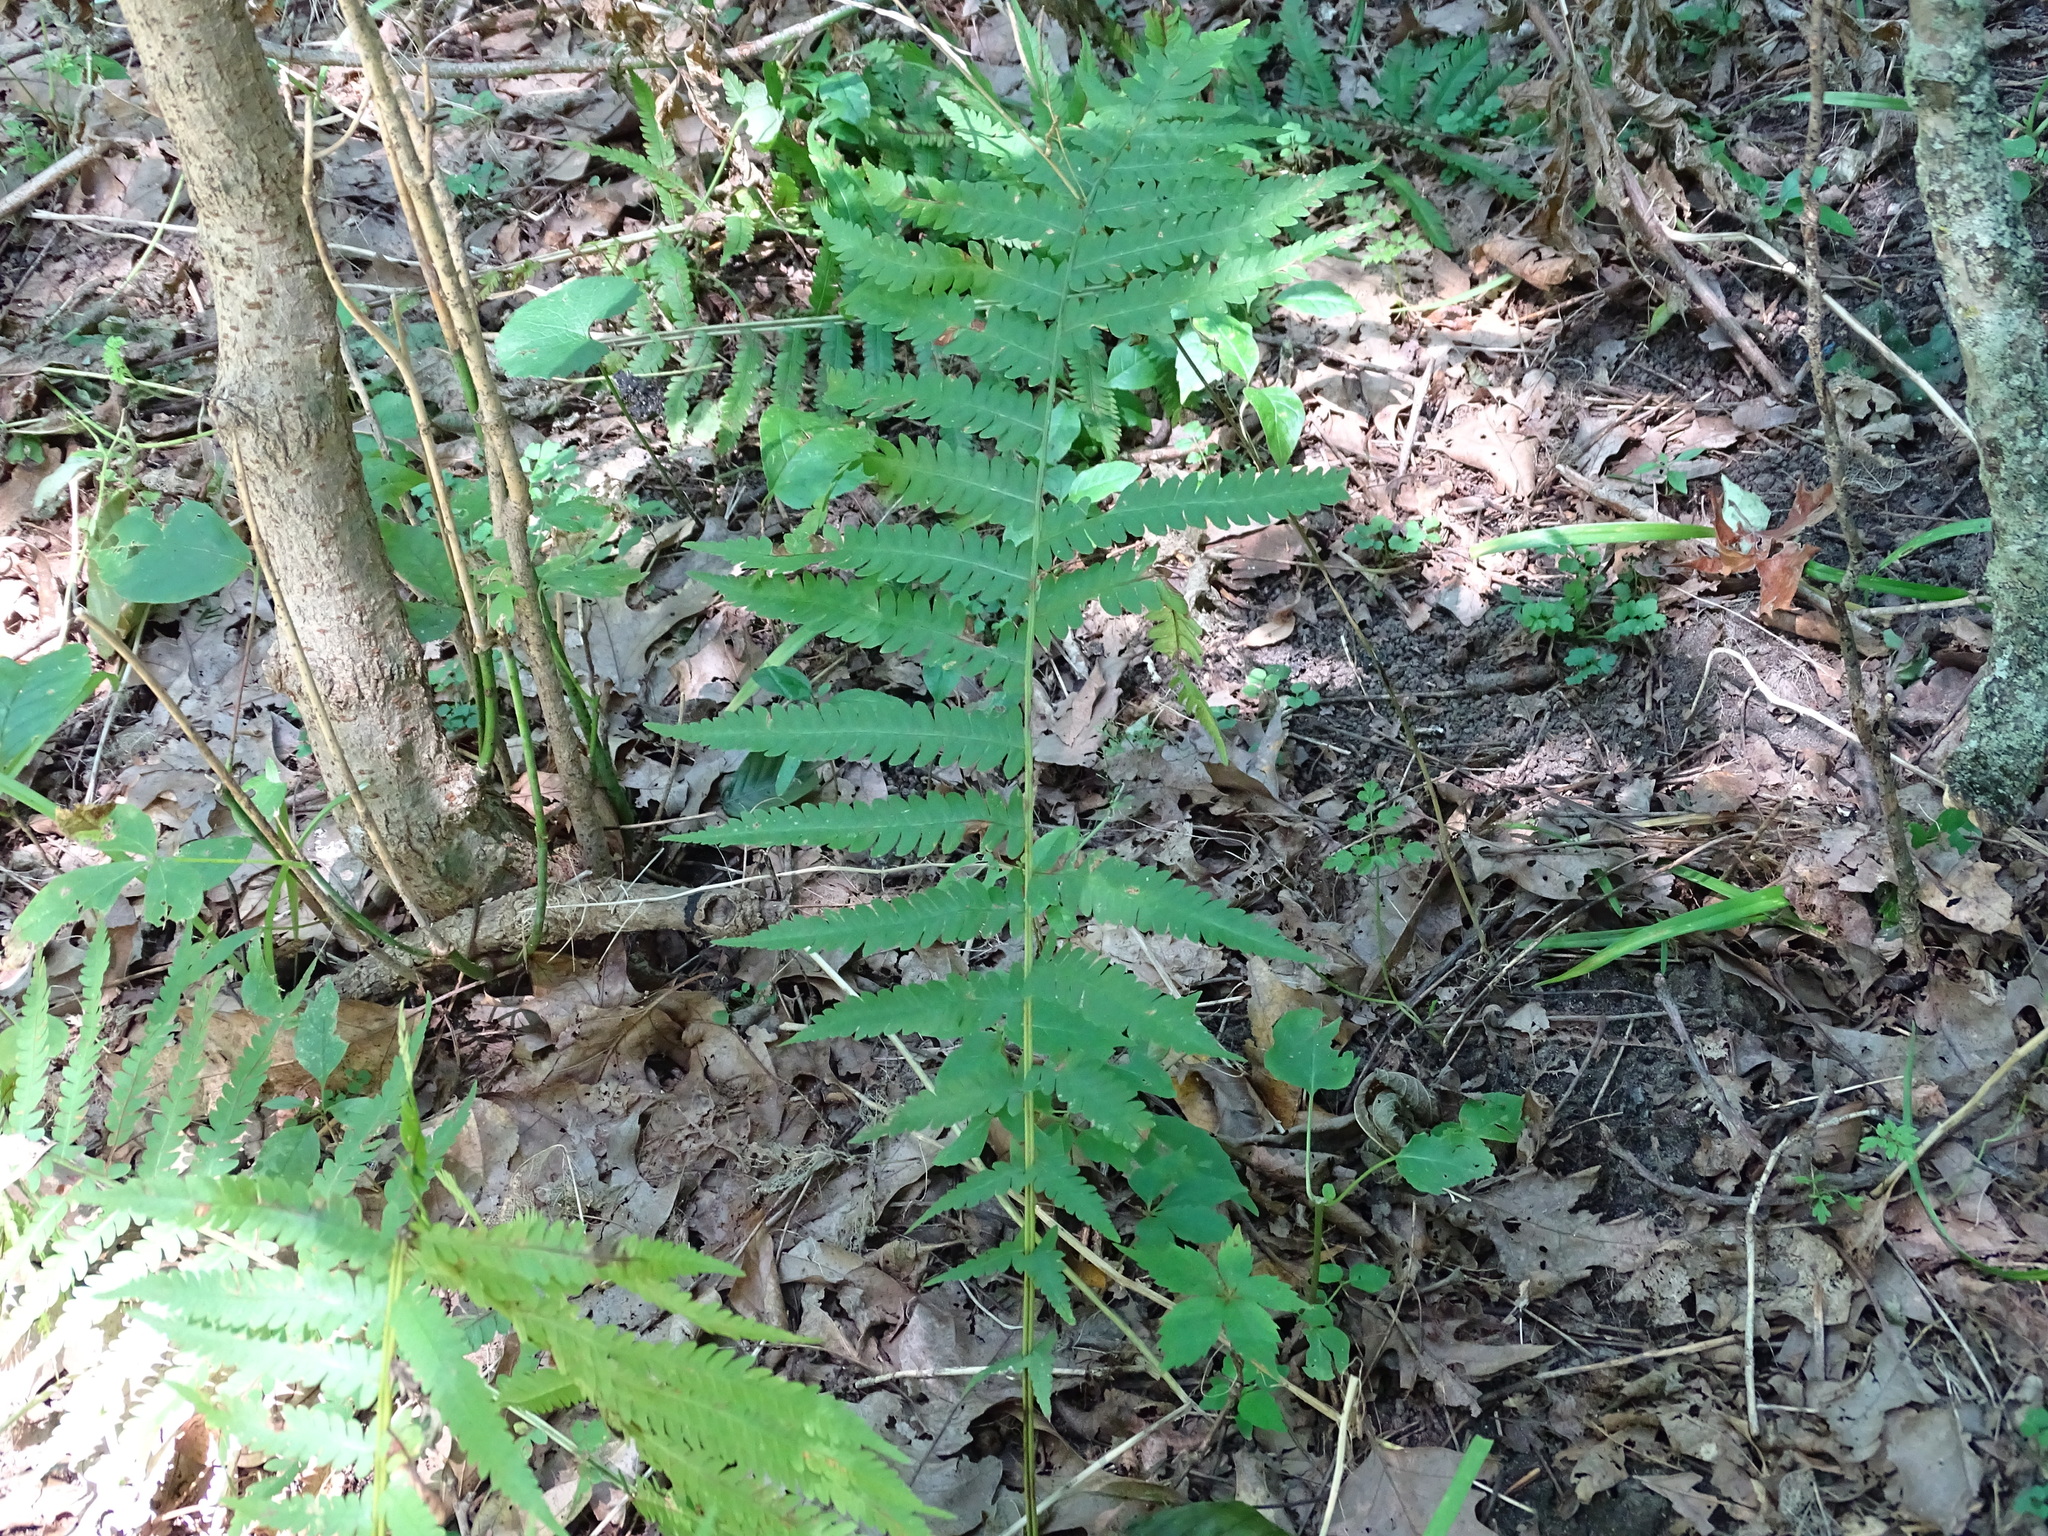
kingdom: Plantae
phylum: Tracheophyta
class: Polypodiopsida
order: Polypodiales
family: Onocleaceae
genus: Matteuccia
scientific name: Matteuccia struthiopteris
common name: Ostrich fern
